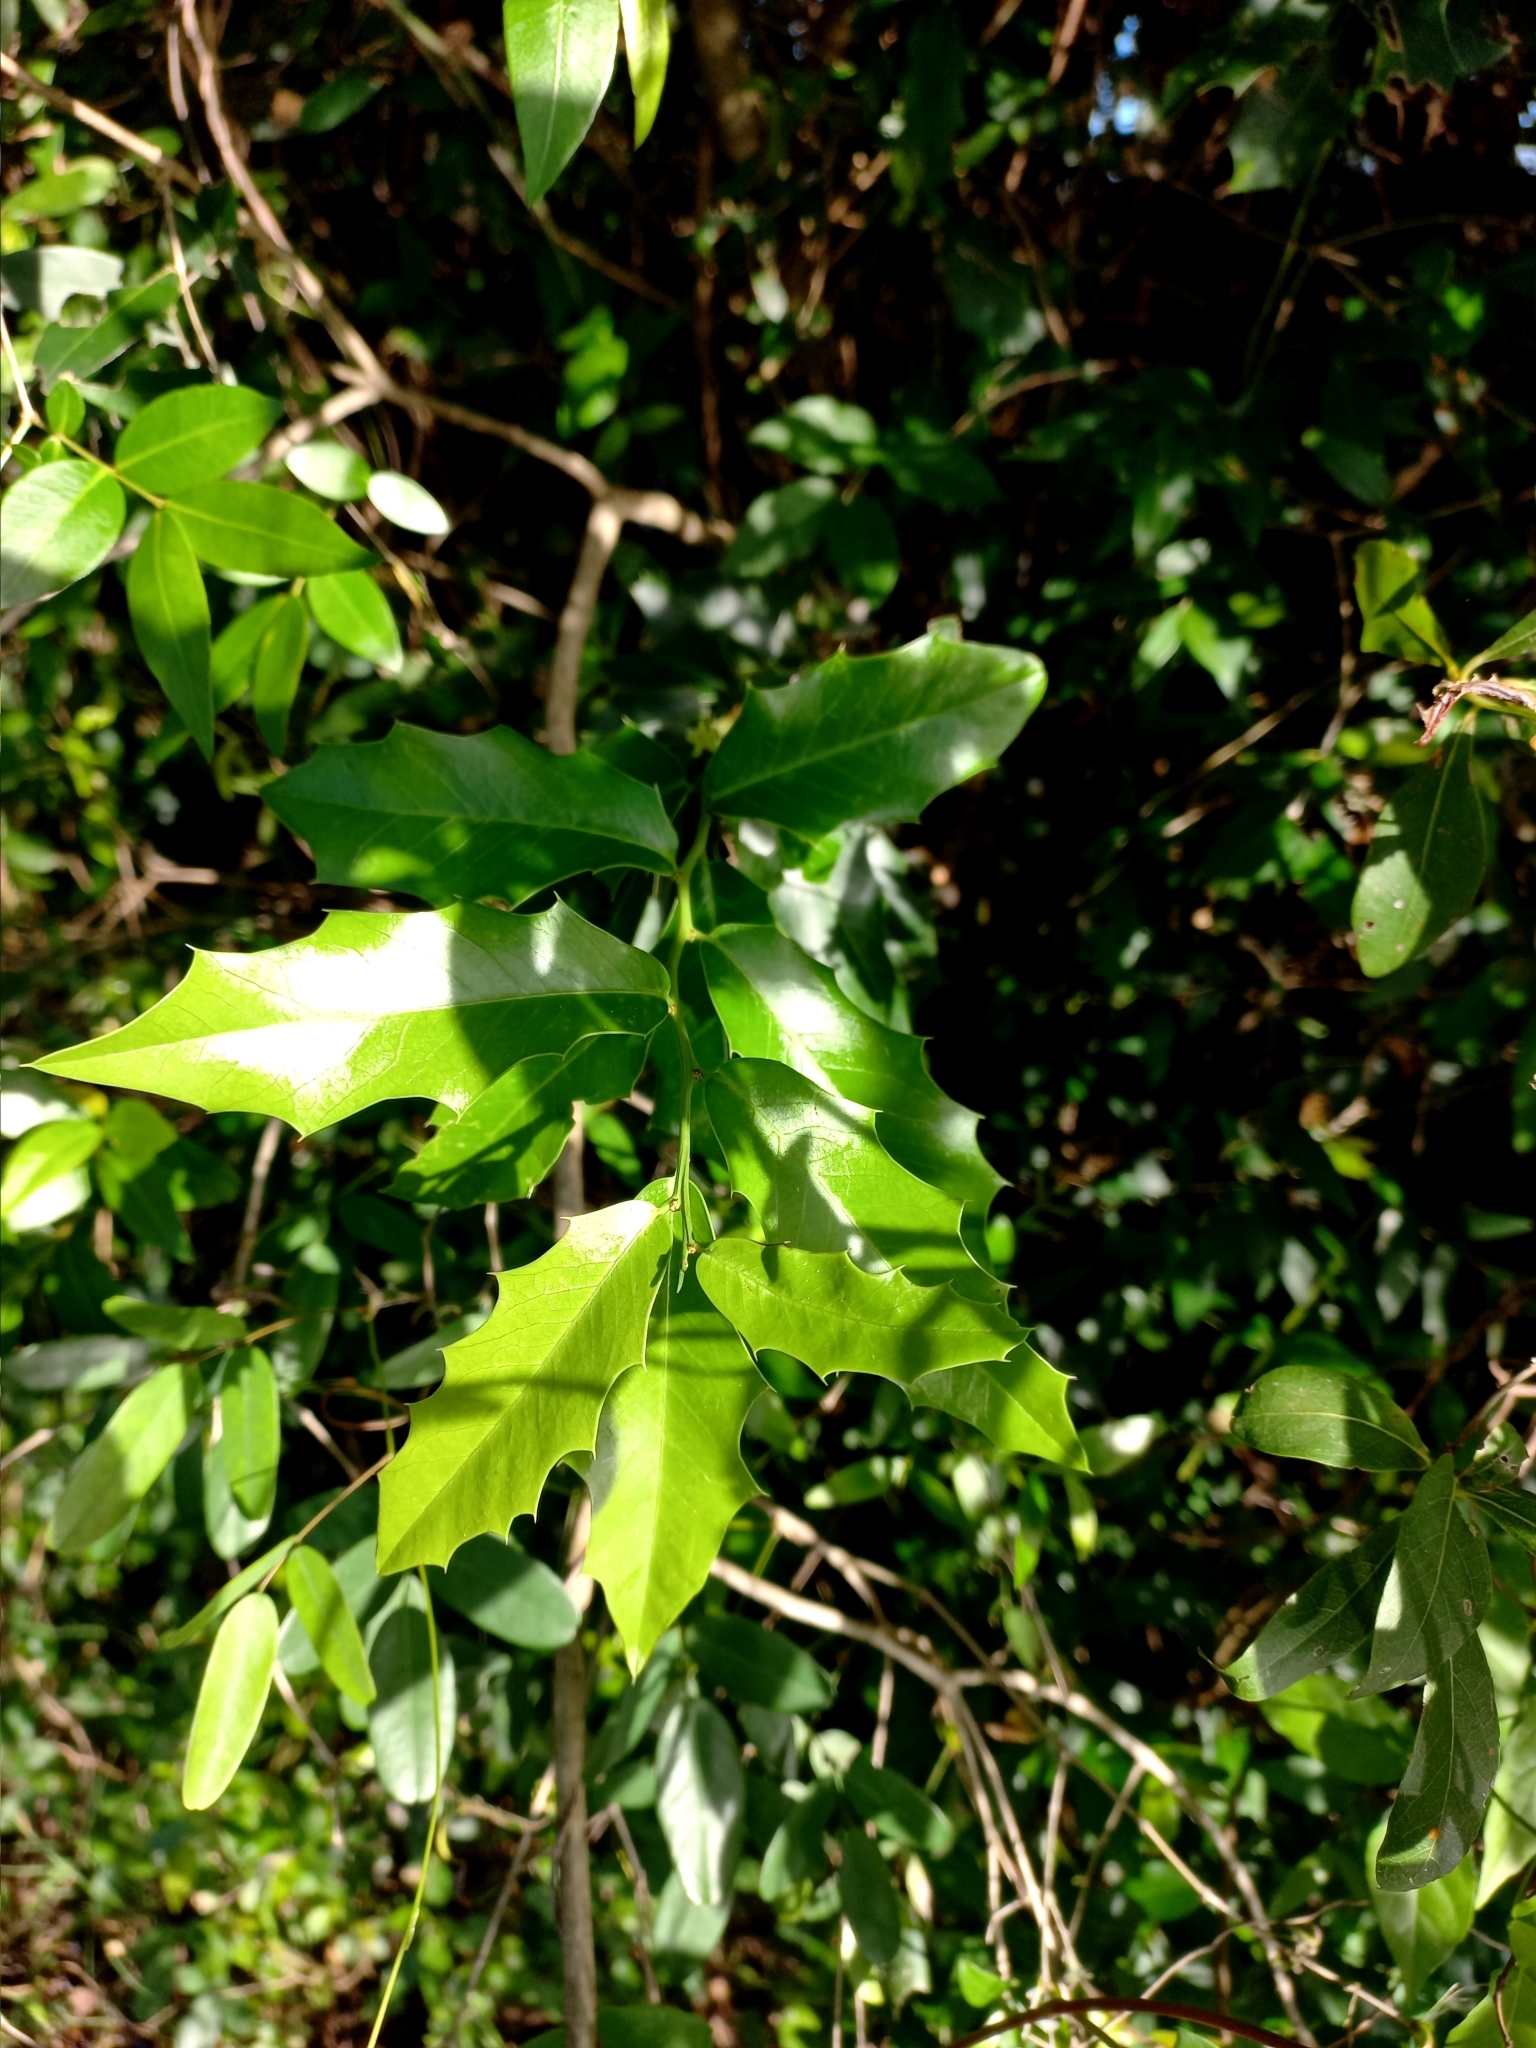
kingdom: Plantae
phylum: Tracheophyta
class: Magnoliopsida
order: Celastrales
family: Celastraceae
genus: Monteverdia
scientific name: Monteverdia
